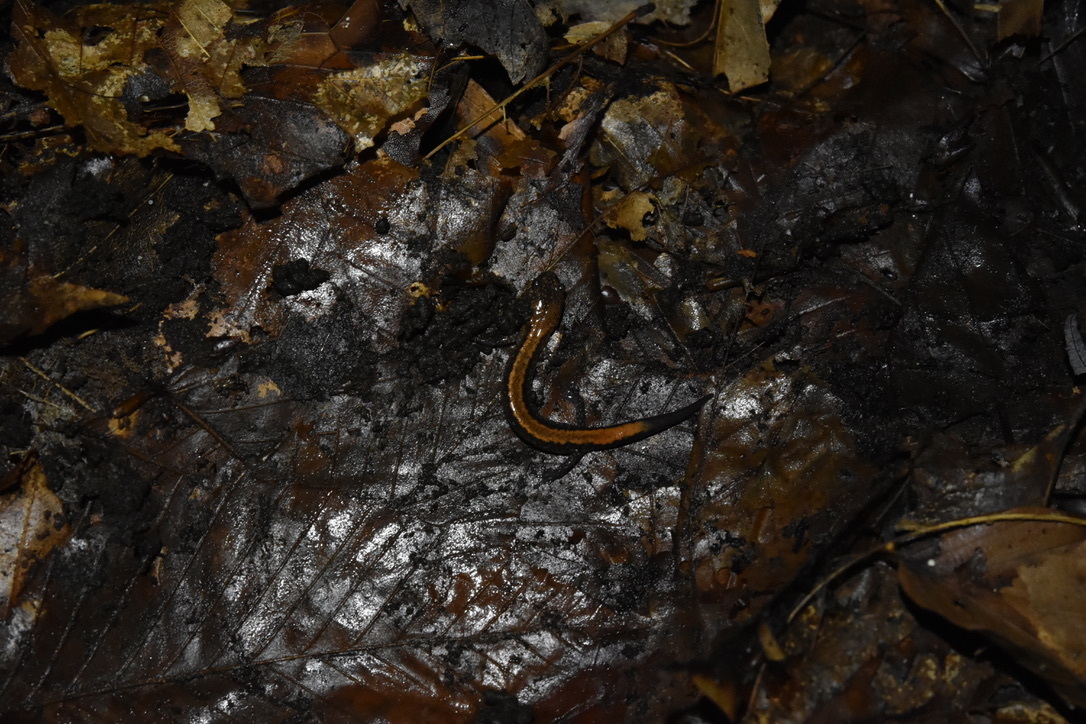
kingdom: Animalia
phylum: Chordata
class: Amphibia
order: Caudata
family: Plethodontidae
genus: Plethodon
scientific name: Plethodon cinereus
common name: Redback salamander
